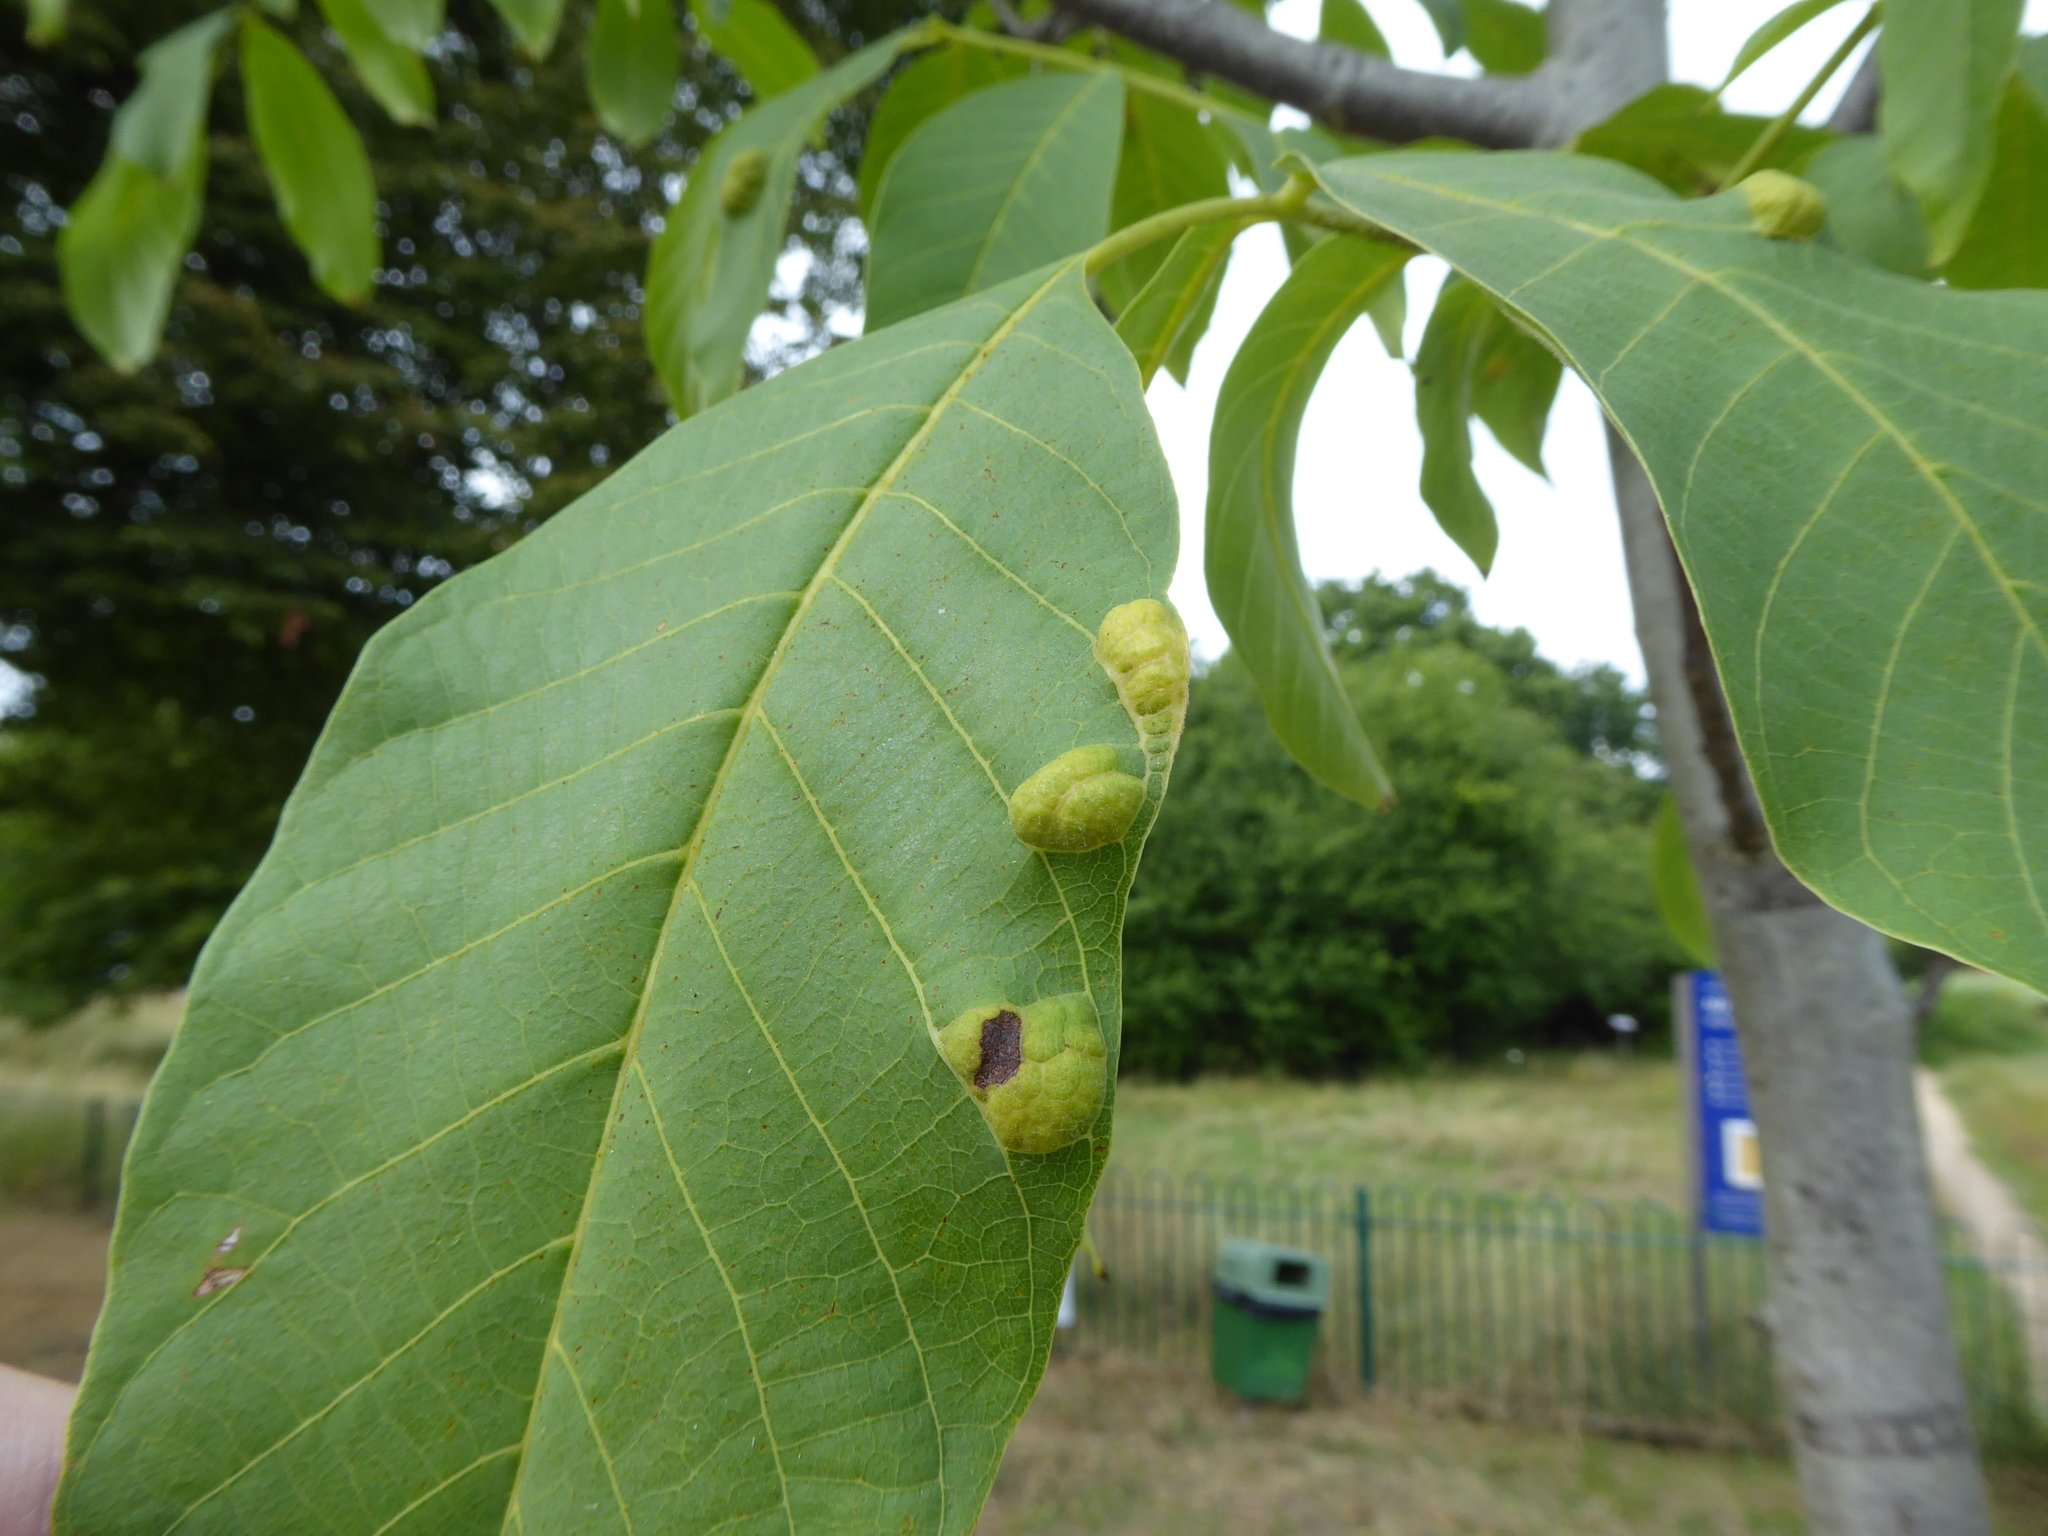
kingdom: Animalia
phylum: Arthropoda
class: Arachnida
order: Trombidiformes
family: Eriophyidae
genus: Aceria
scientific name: Aceria erinea
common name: Persian walnut erineum mite
